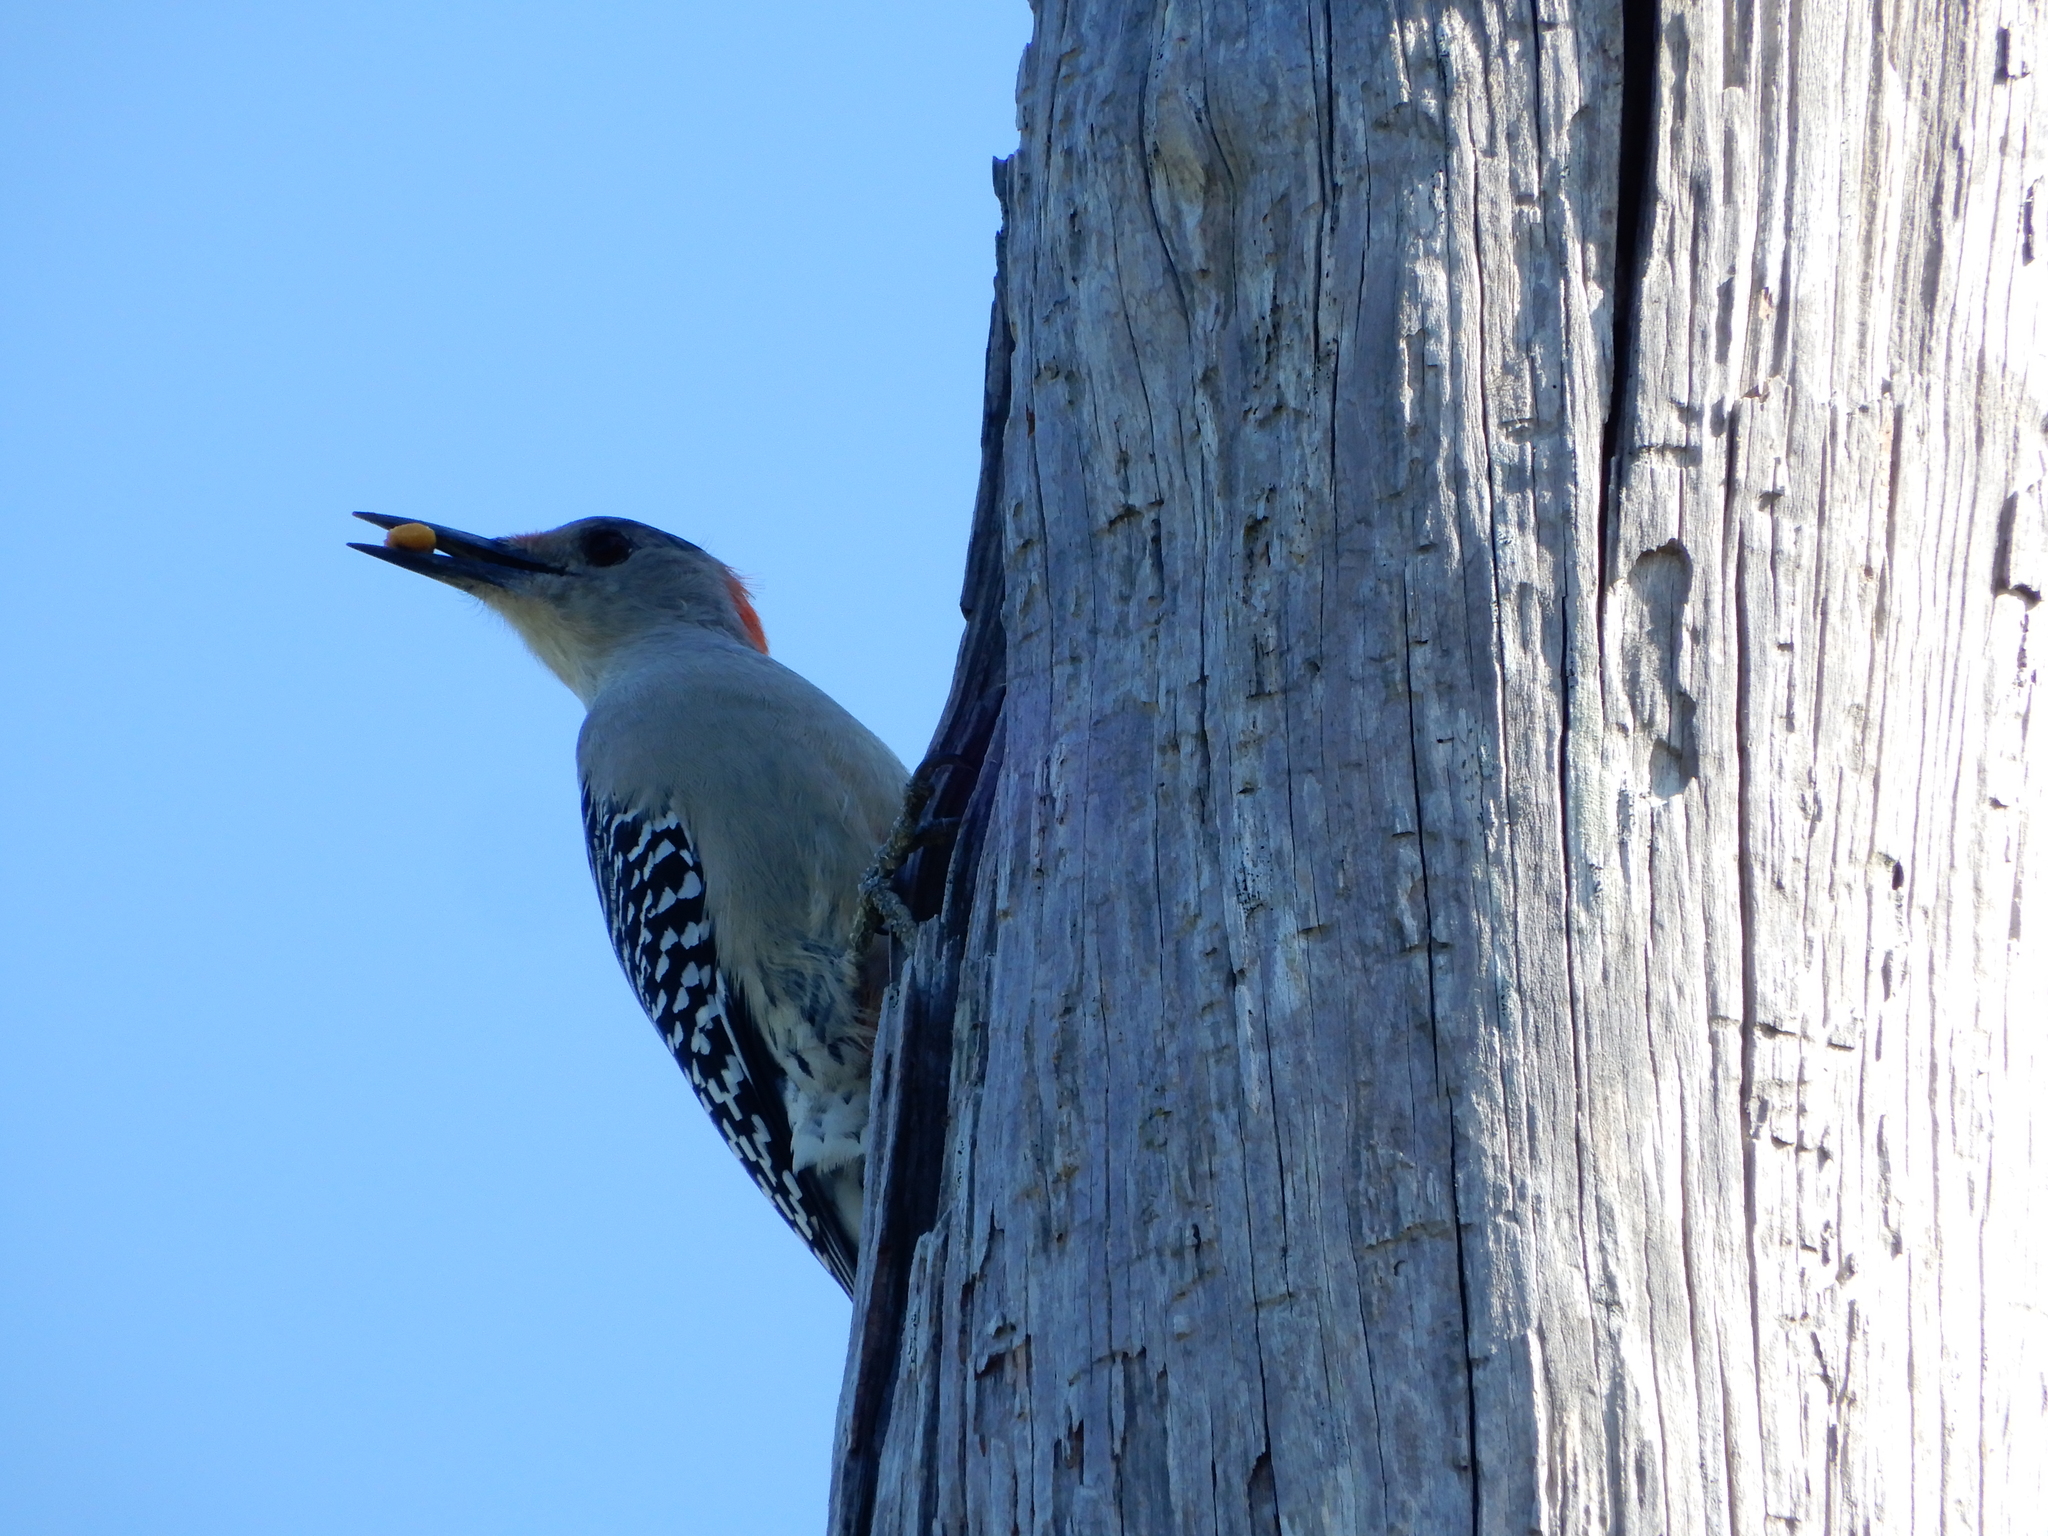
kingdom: Animalia
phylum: Chordata
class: Aves
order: Piciformes
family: Picidae
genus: Melanerpes
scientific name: Melanerpes carolinus
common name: Red-bellied woodpecker
